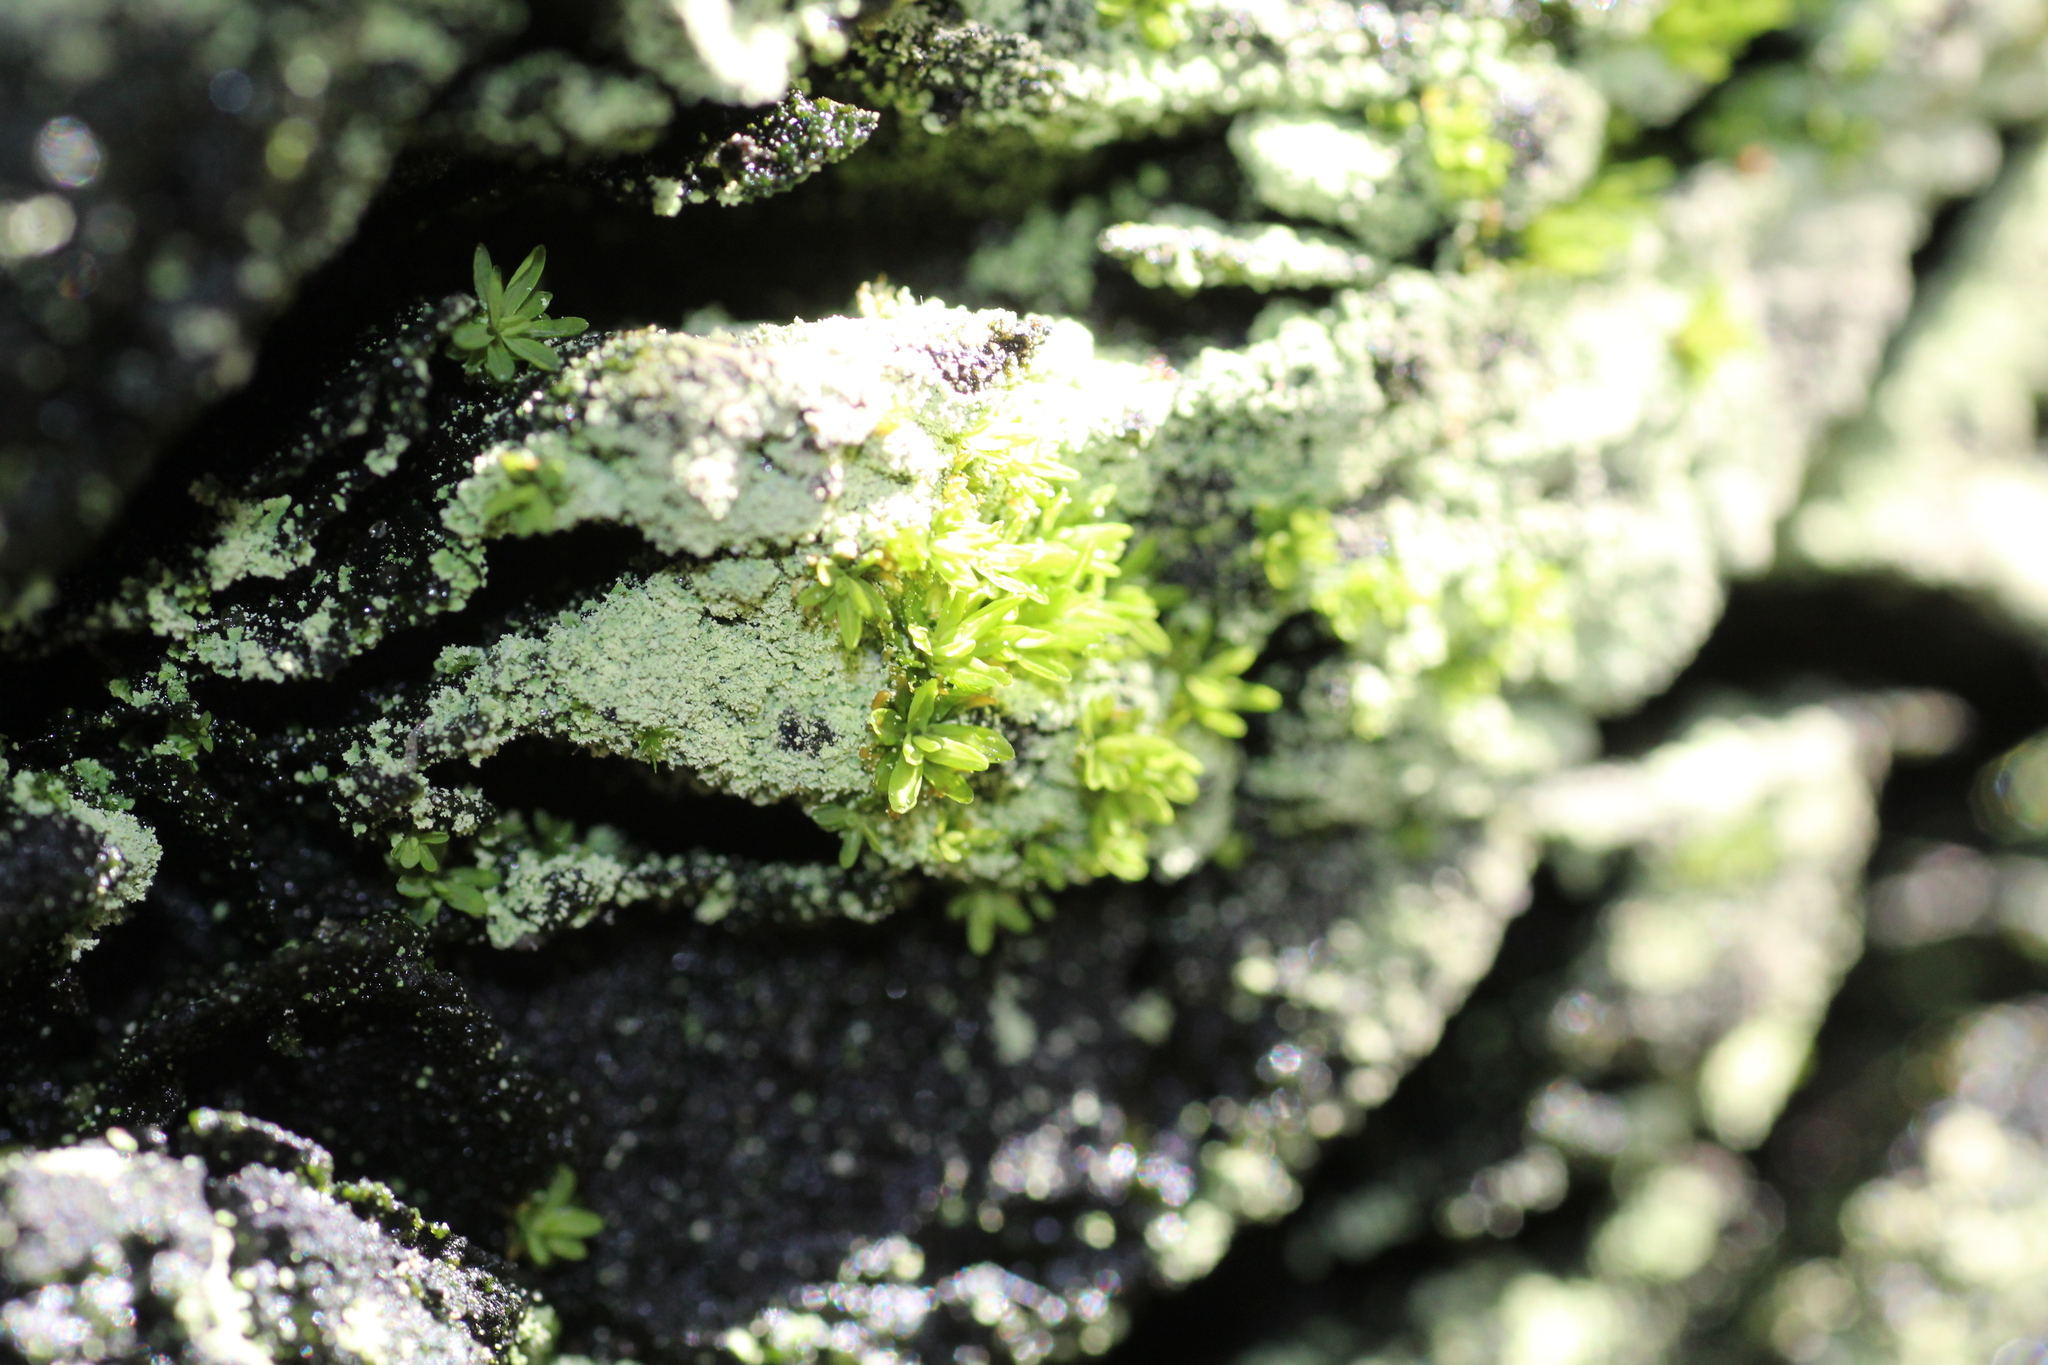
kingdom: Plantae
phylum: Bryophyta
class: Bryopsida
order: Pottiales
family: Pottiaceae
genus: Calymperastrum
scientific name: Calymperastrum latifolium
